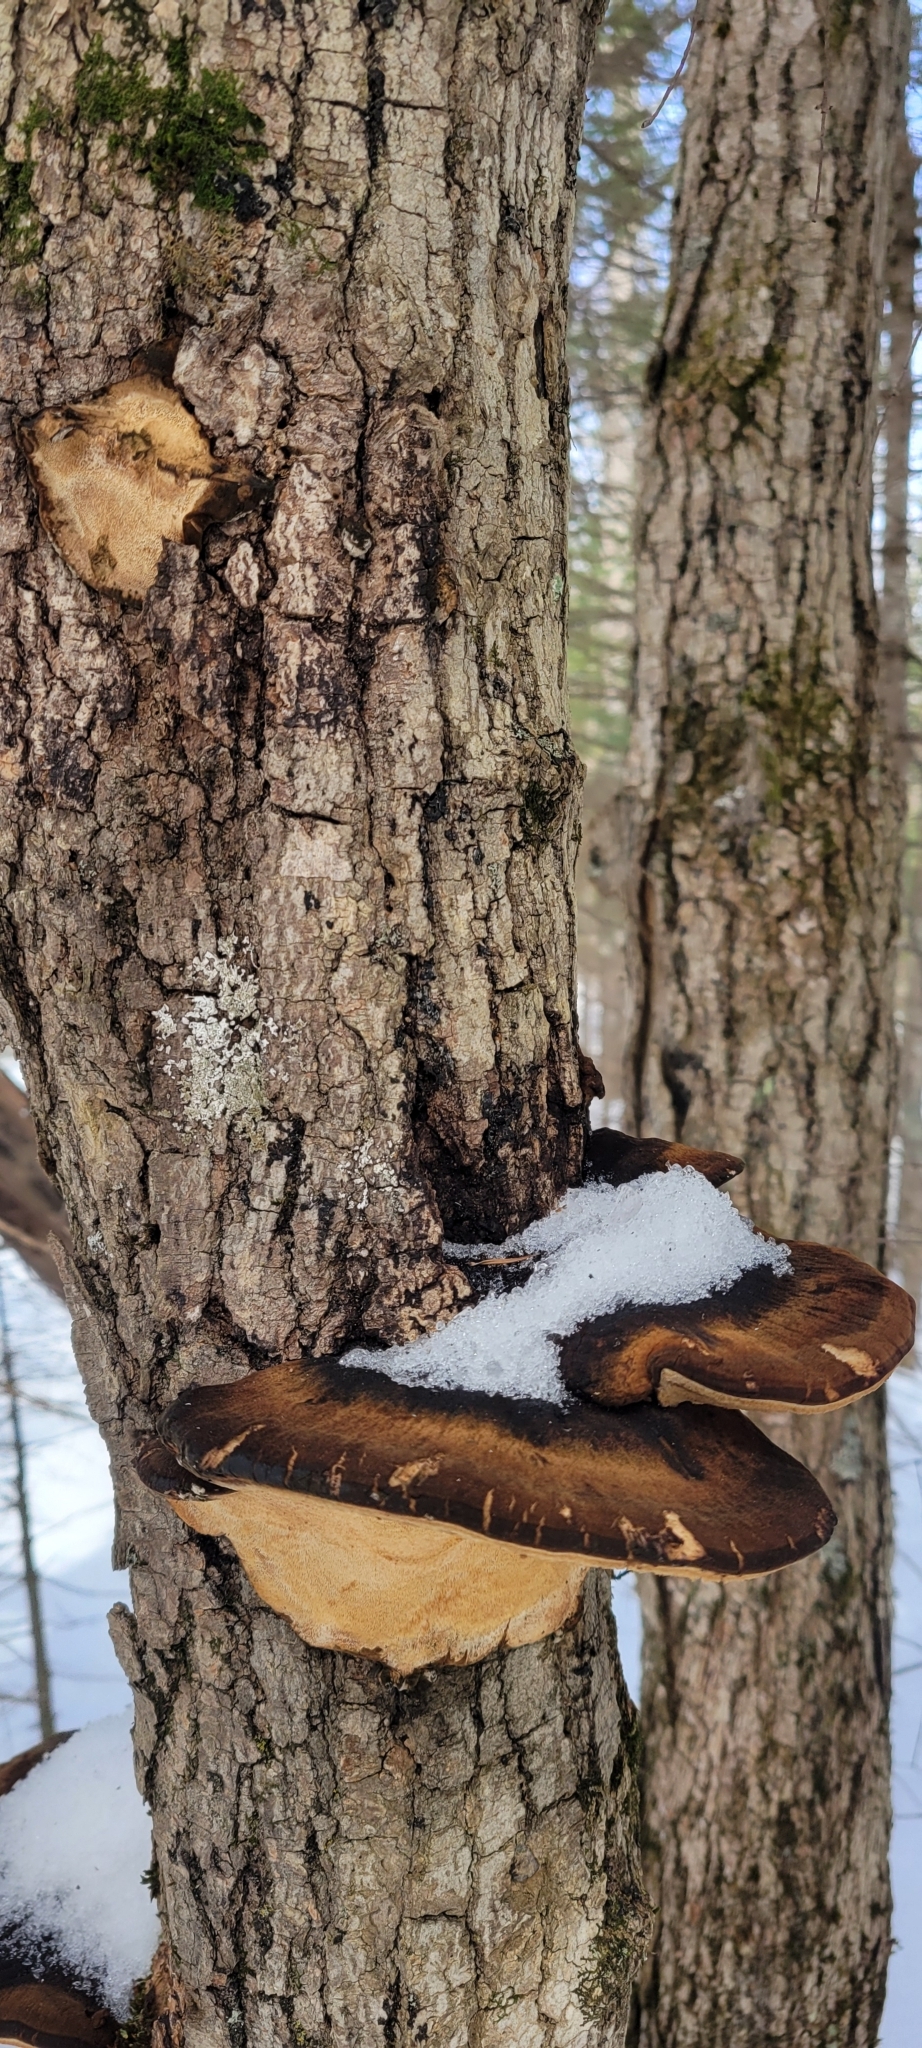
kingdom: Fungi
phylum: Basidiomycota
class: Agaricomycetes
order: Polyporales
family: Ischnodermataceae
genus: Ischnoderma
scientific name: Ischnoderma resinosum
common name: Resinous polypore
